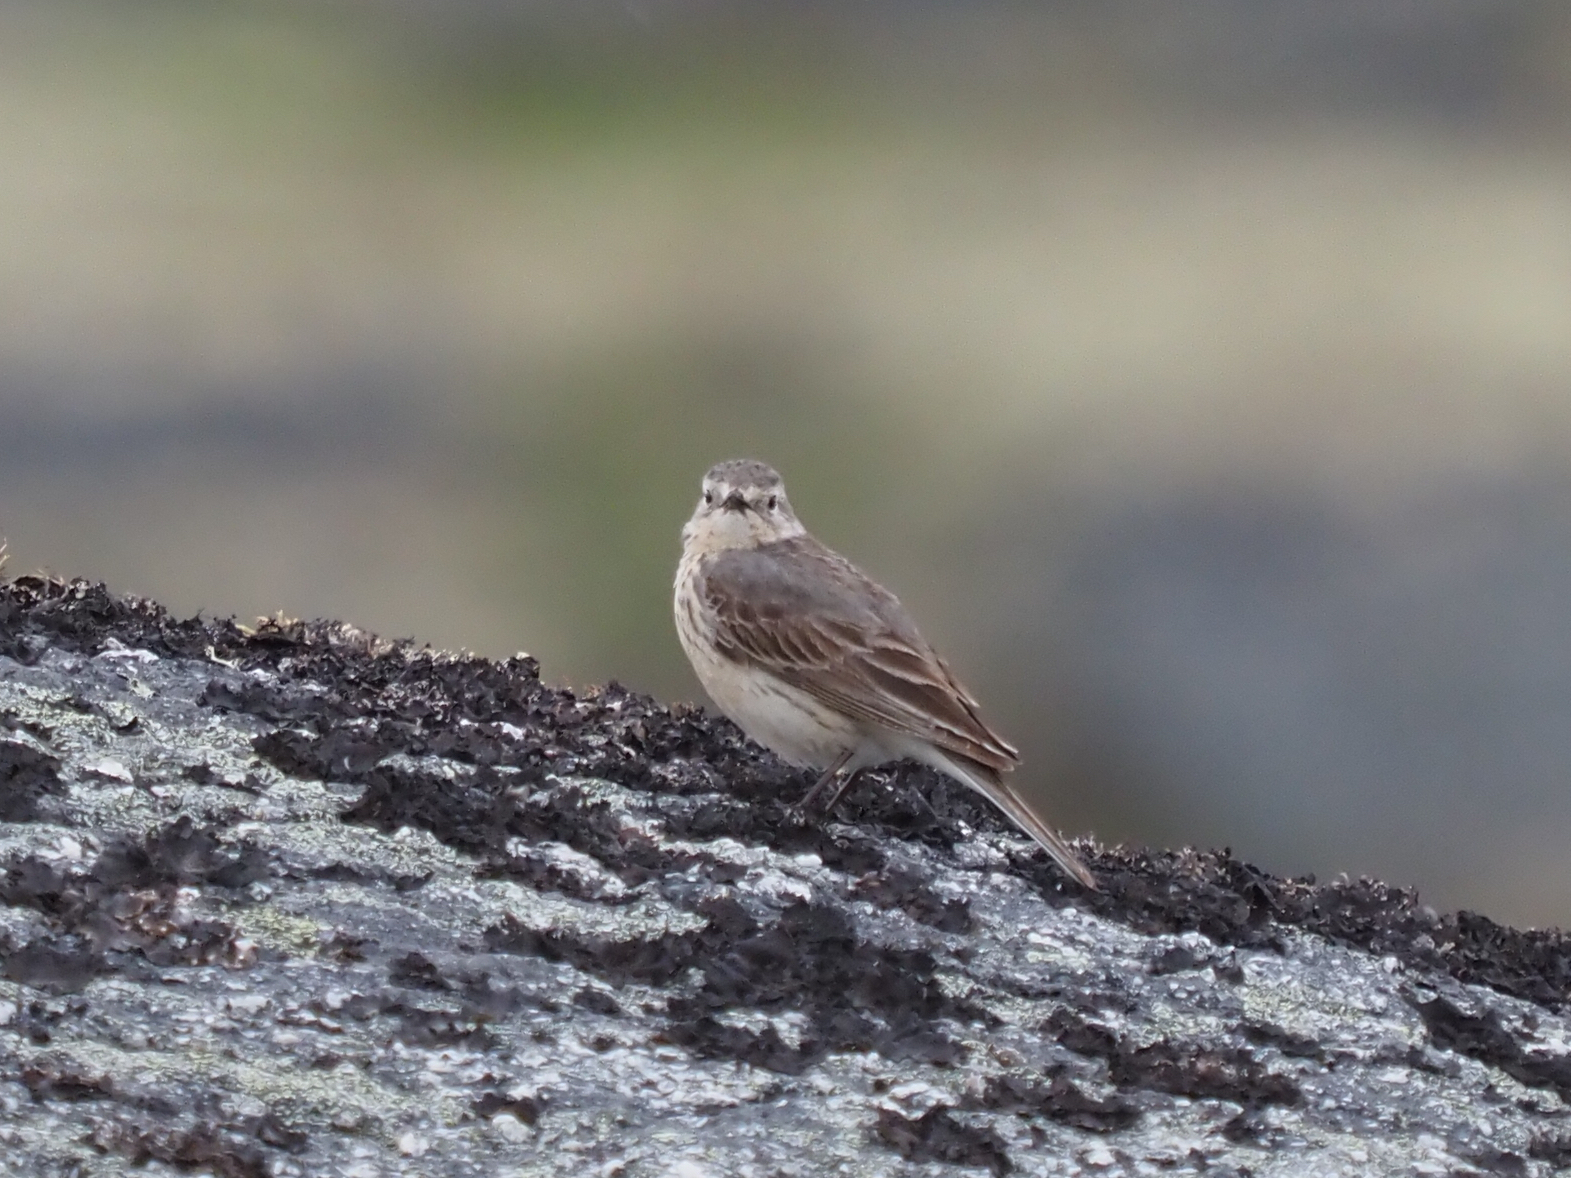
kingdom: Animalia
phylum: Chordata
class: Aves
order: Passeriformes
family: Motacillidae
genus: Anthus
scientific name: Anthus rubescens
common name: Buff-bellied pipit
